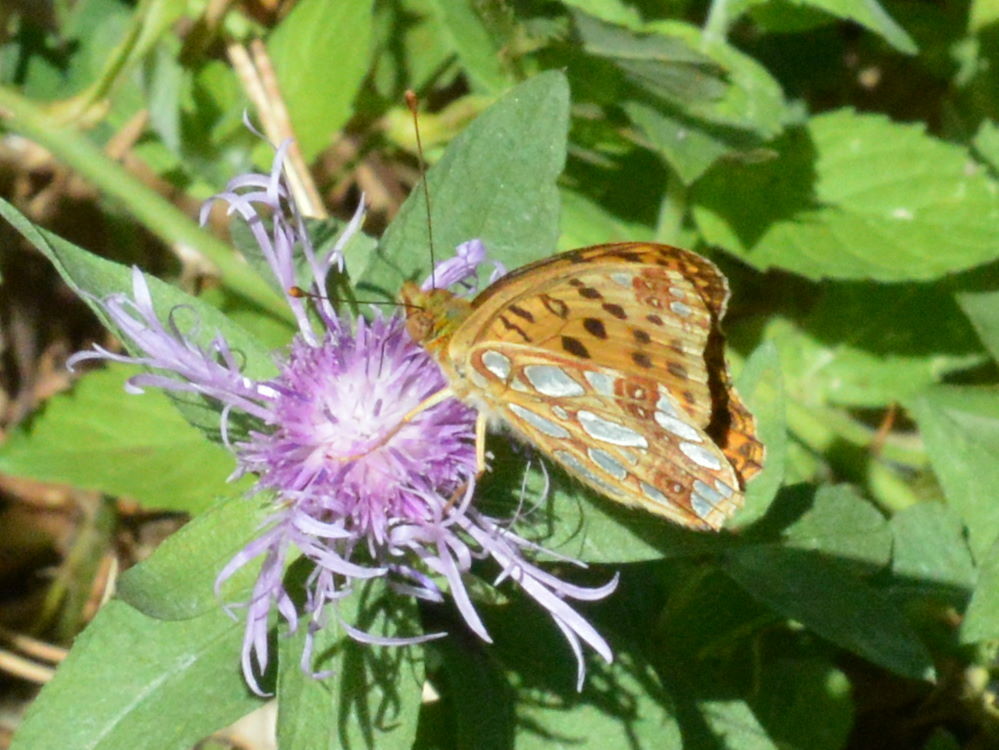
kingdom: Animalia
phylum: Arthropoda
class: Insecta
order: Lepidoptera
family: Nymphalidae
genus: Issoria
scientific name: Issoria lathonia
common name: Queen of spain fritillary
